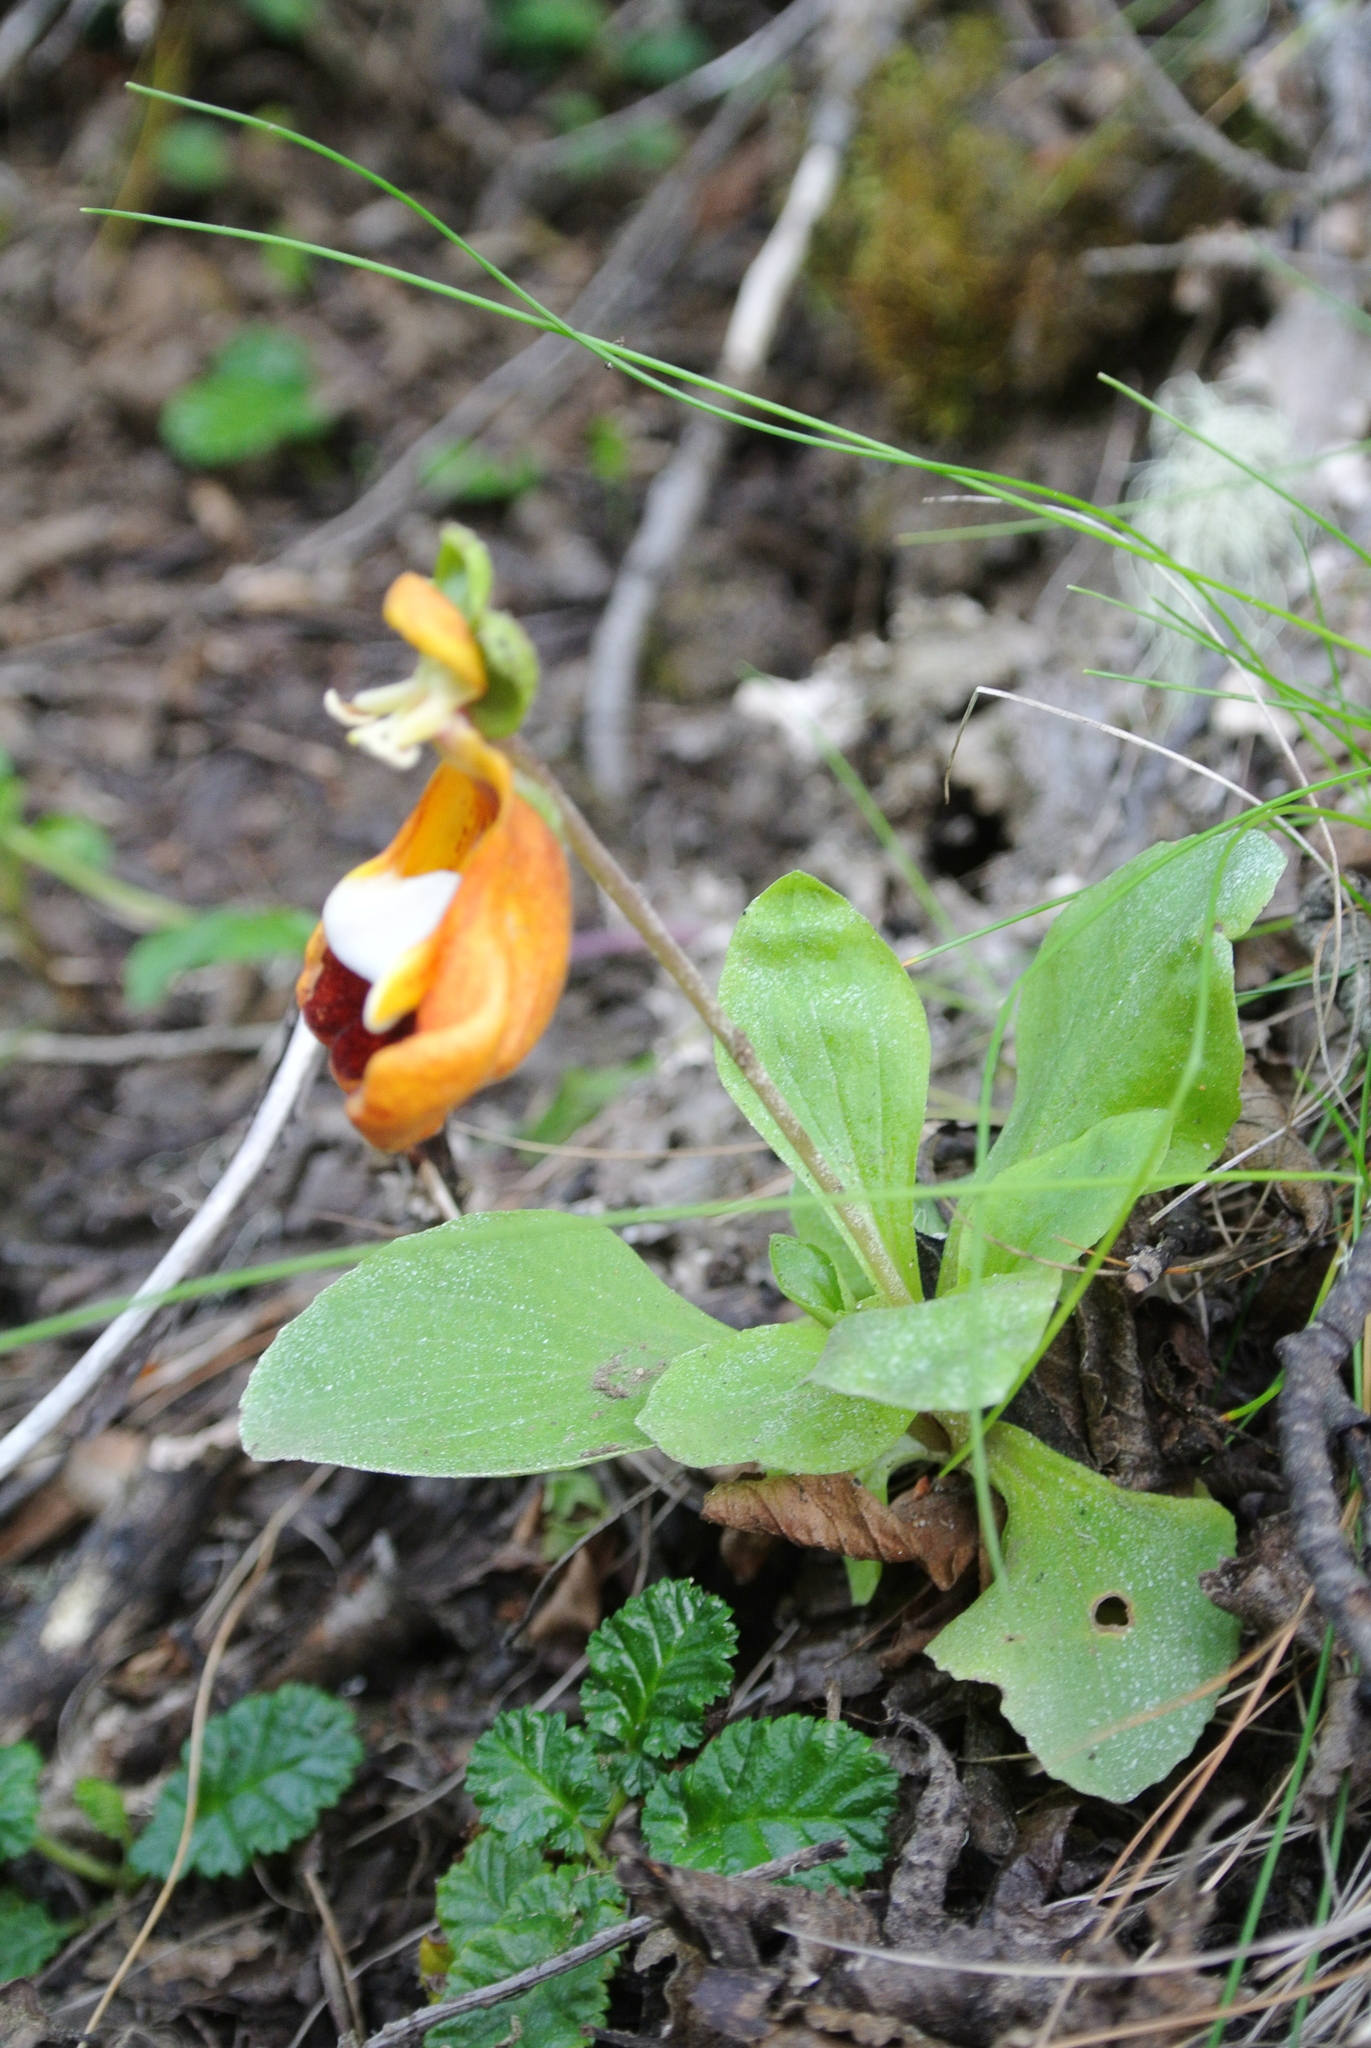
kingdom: Plantae
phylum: Tracheophyta
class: Magnoliopsida
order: Lamiales
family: Calceolariaceae
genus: Calceolaria
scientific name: Calceolaria uniflora
